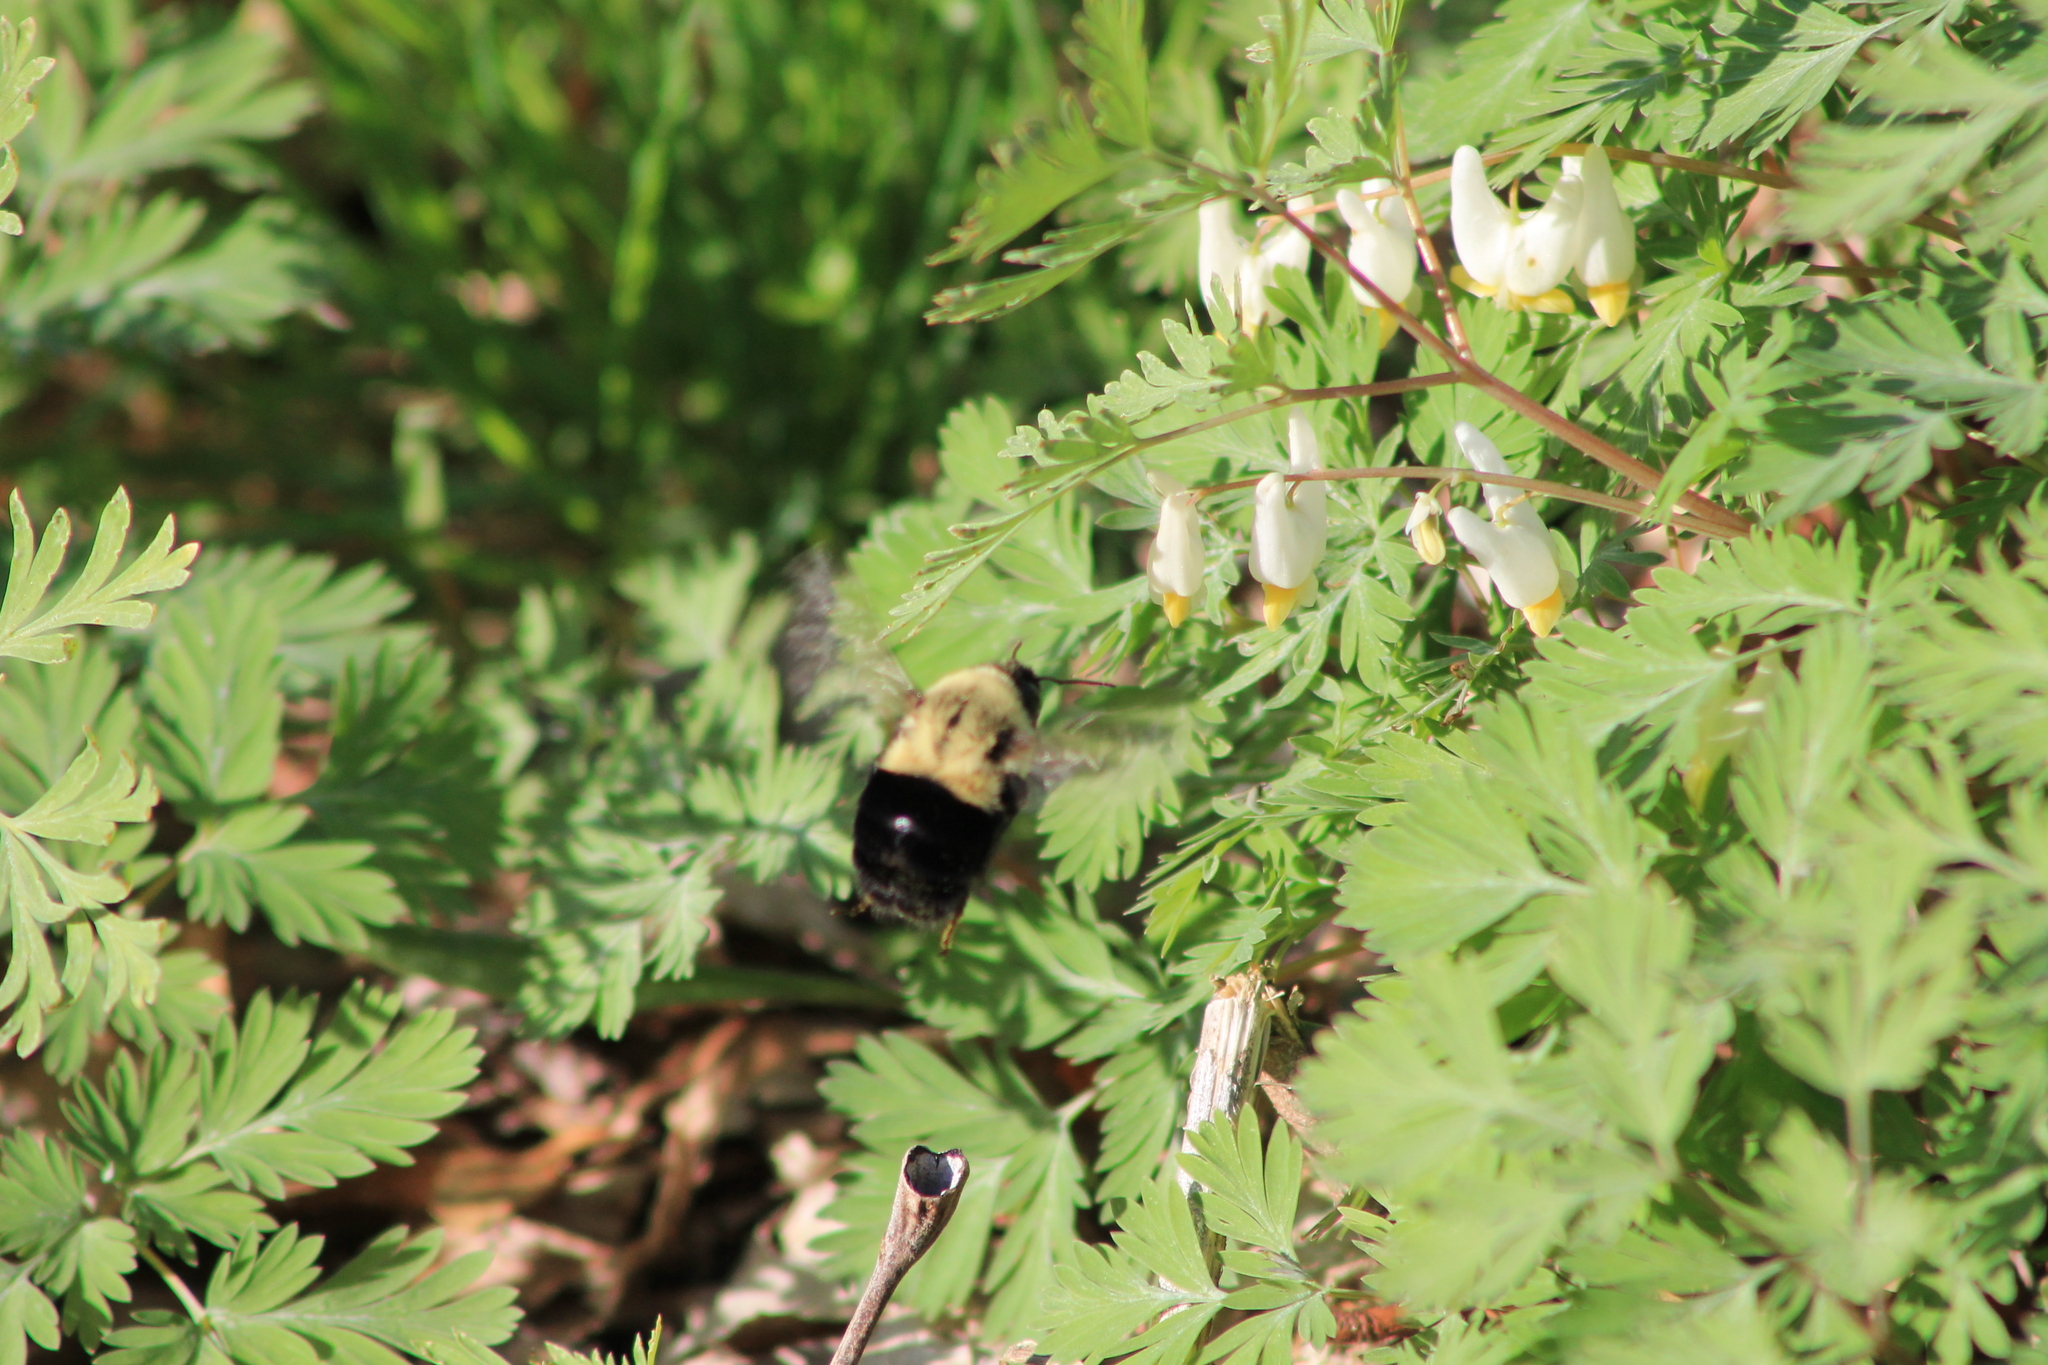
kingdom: Animalia
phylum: Arthropoda
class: Insecta
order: Hymenoptera
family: Apidae
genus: Bombus
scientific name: Bombus impatiens
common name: Common eastern bumble bee
